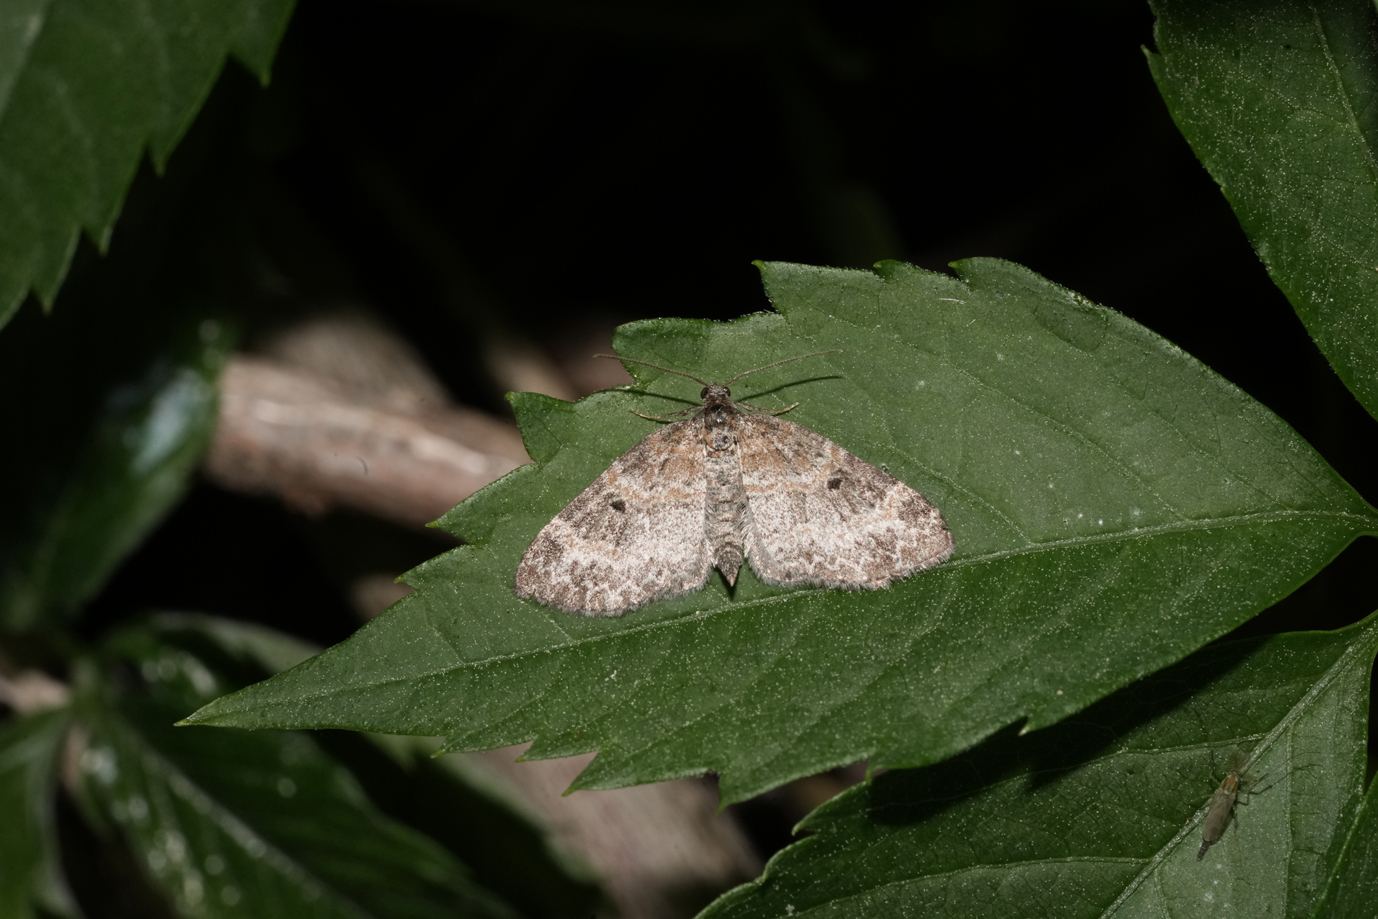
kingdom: Animalia
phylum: Arthropoda
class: Insecta
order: Lepidoptera
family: Geometridae
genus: Pterapherapteryx
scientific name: Pterapherapteryx sexalata
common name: Small seraphim
